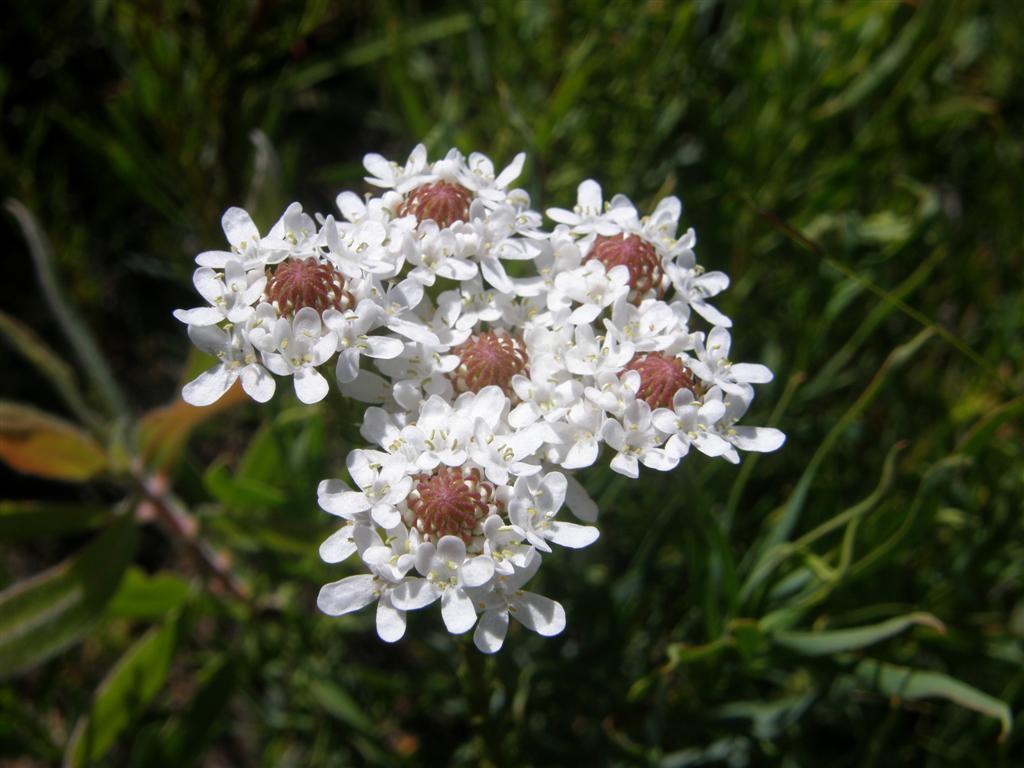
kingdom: Plantae
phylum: Tracheophyta
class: Magnoliopsida
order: Lamiales
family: Scrophulariaceae
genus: Pseudoselago
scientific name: Pseudoselago spuria
